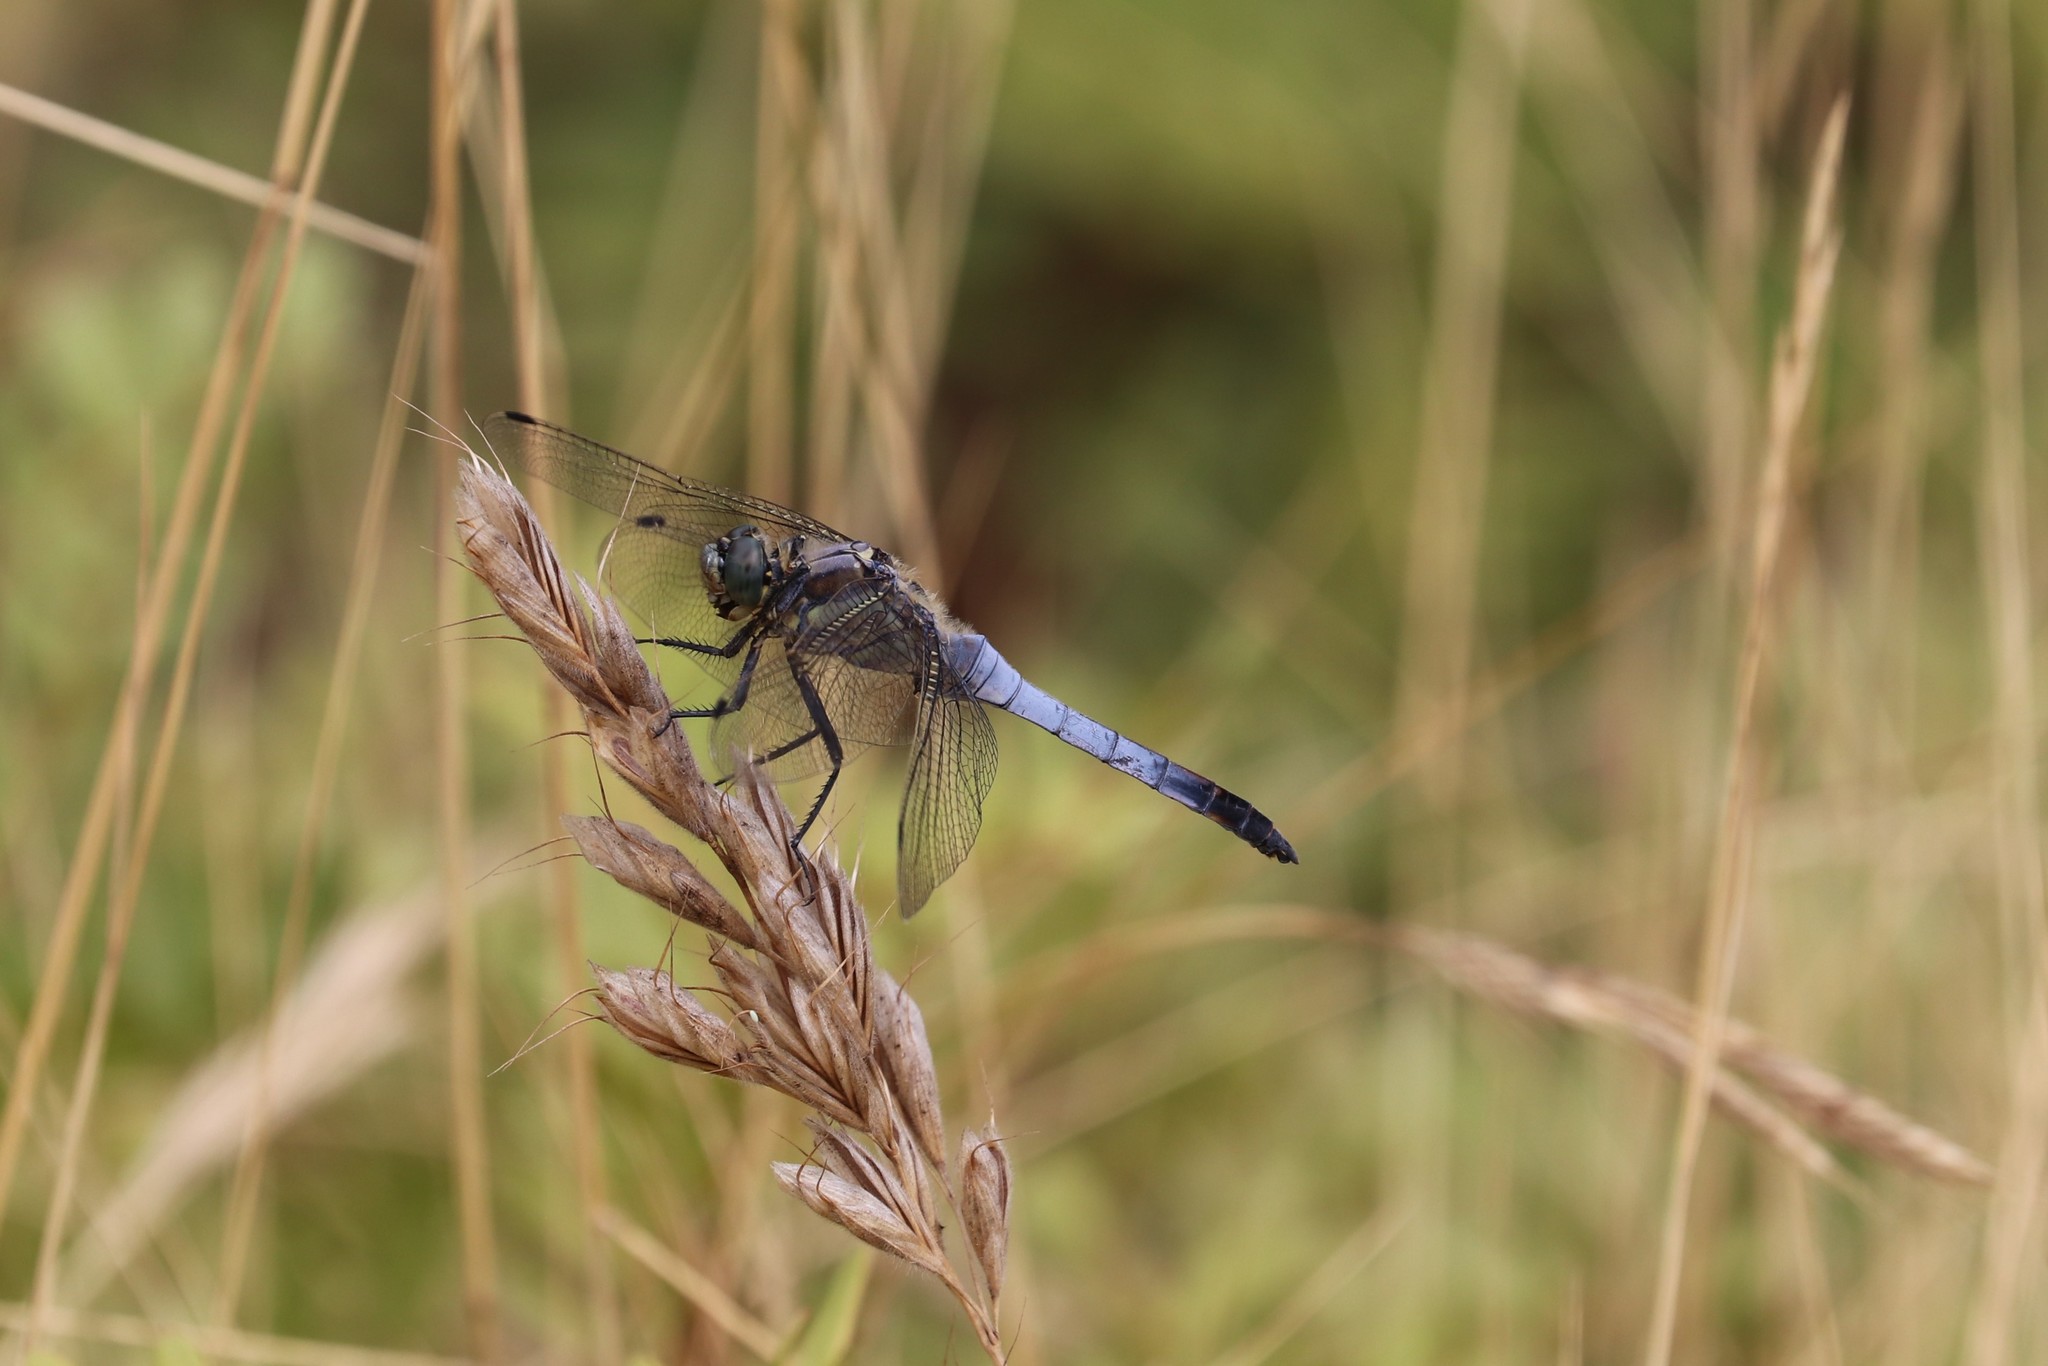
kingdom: Animalia
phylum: Arthropoda
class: Insecta
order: Odonata
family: Libellulidae
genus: Orthetrum
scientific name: Orthetrum cancellatum
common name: Black-tailed skimmer
